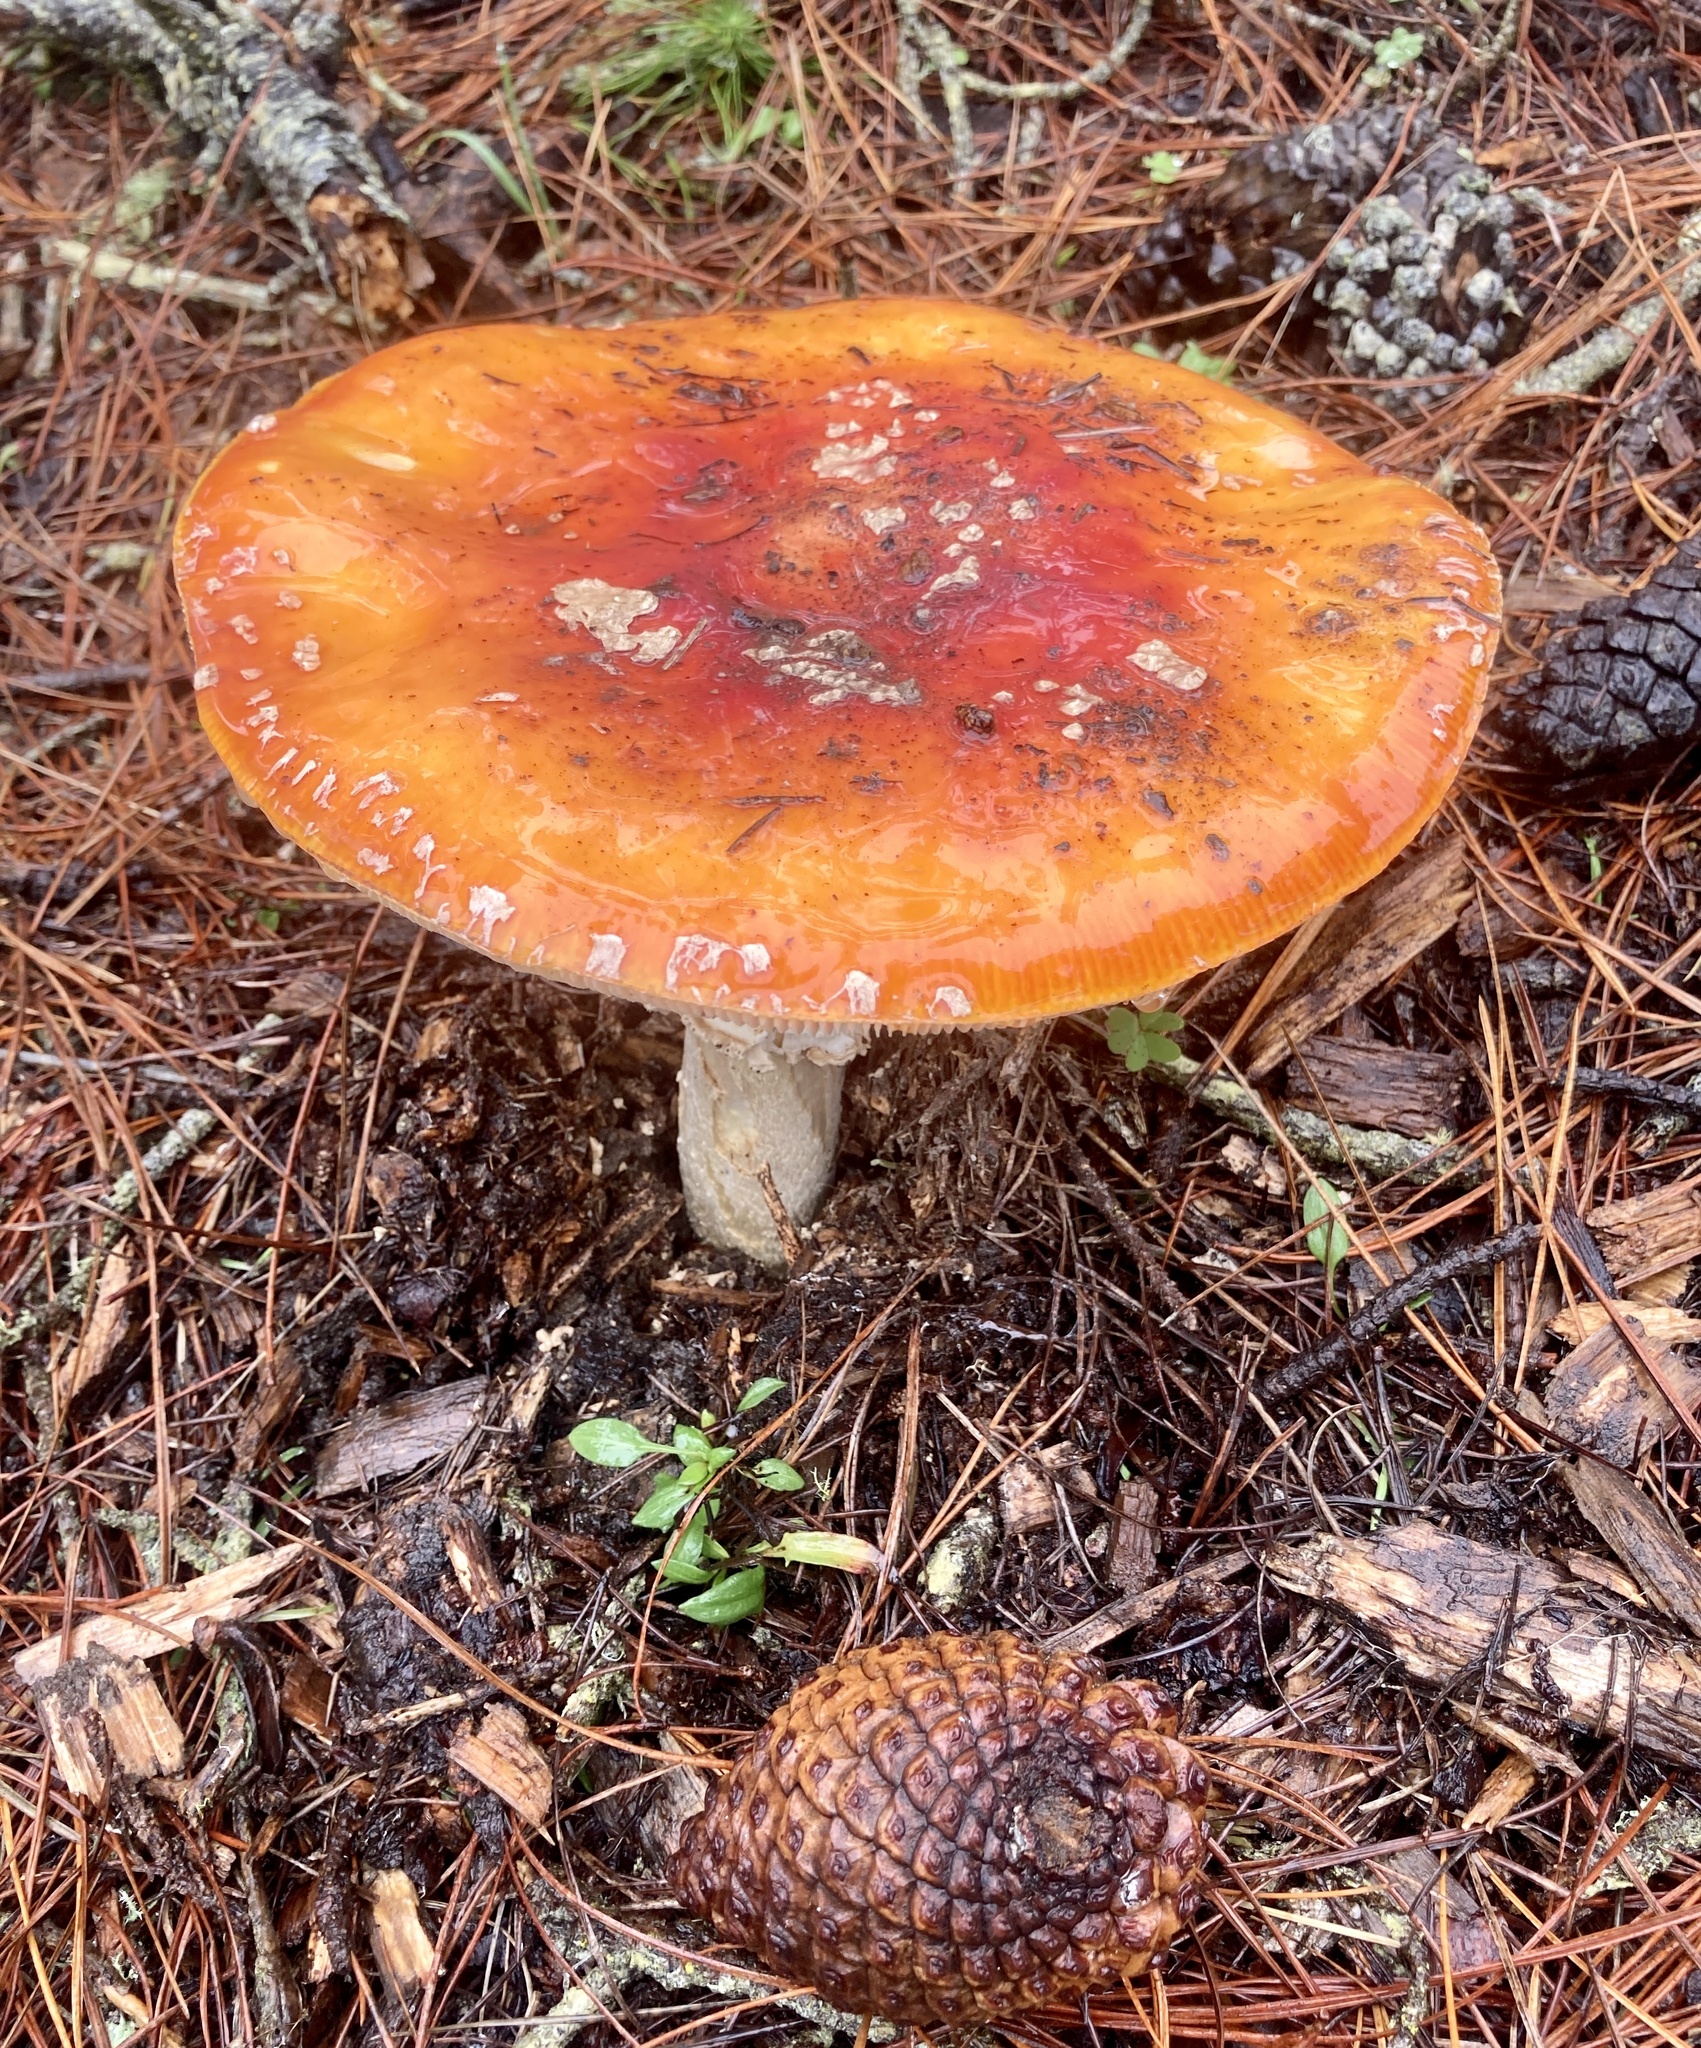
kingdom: Fungi
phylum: Basidiomycota
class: Agaricomycetes
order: Agaricales
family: Amanitaceae
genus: Amanita
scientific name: Amanita muscaria
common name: Fly agaric
